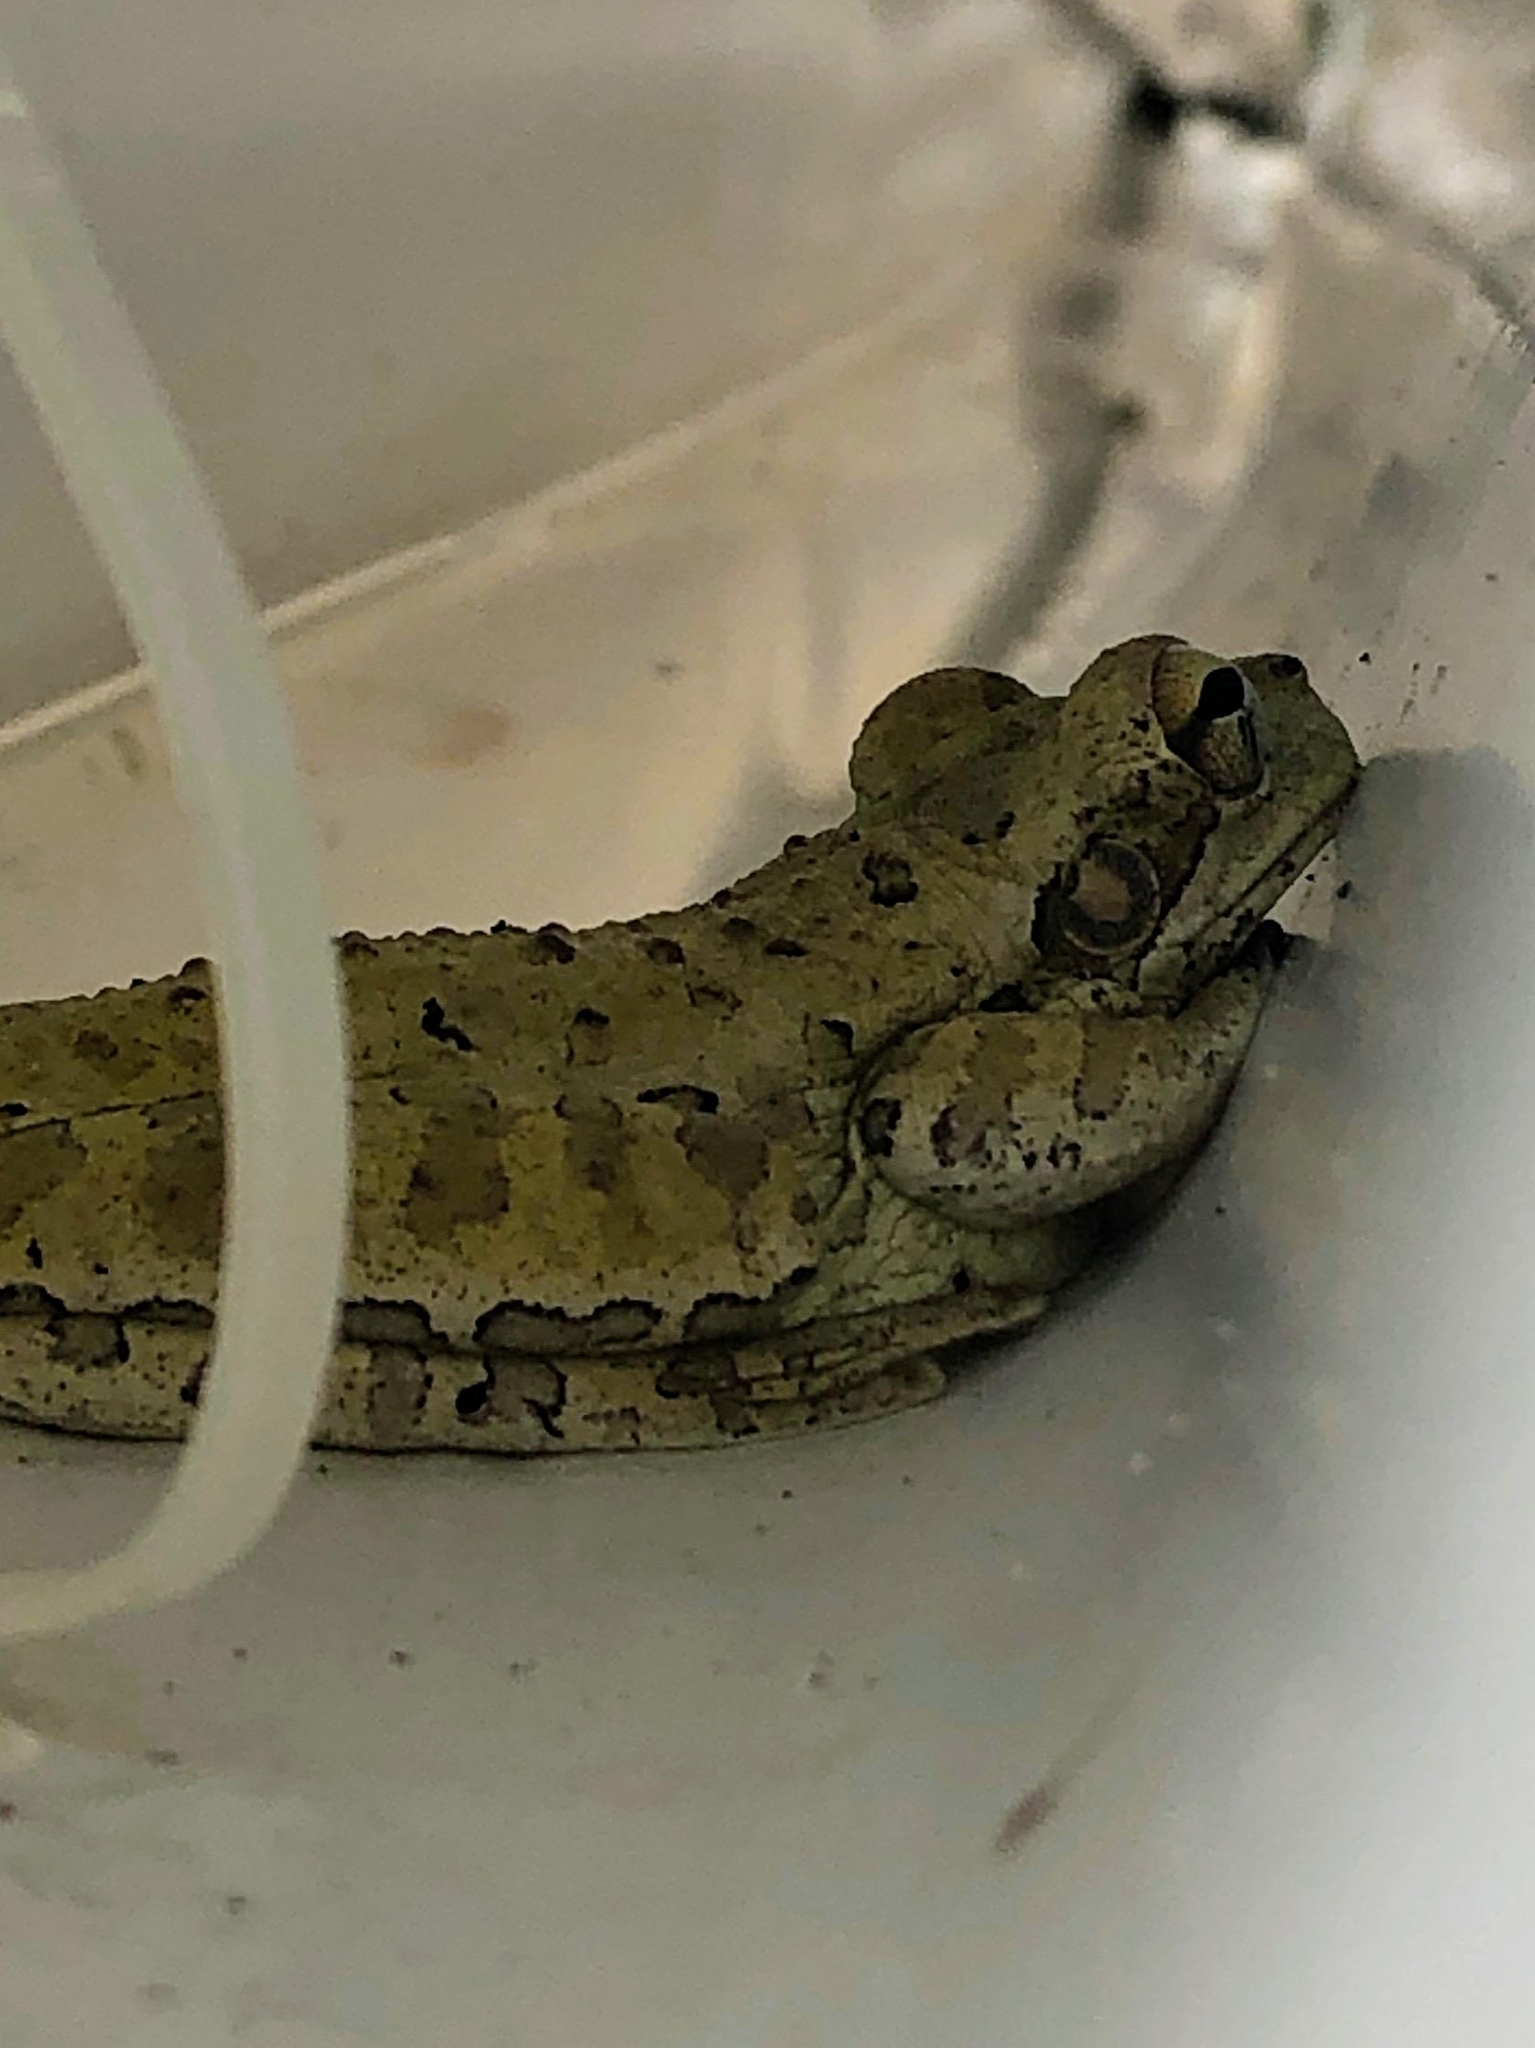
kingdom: Animalia
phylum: Chordata
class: Amphibia
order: Anura
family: Hylidae
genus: Osteopilus
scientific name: Osteopilus septentrionalis
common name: Cuban treefrog
